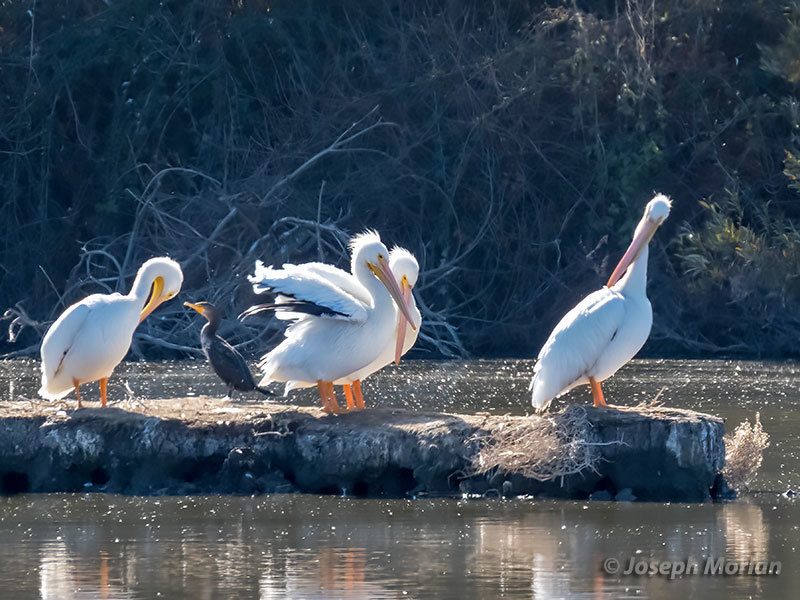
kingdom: Animalia
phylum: Chordata
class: Aves
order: Pelecaniformes
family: Pelecanidae
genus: Pelecanus
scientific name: Pelecanus erythrorhynchos
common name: American white pelican
